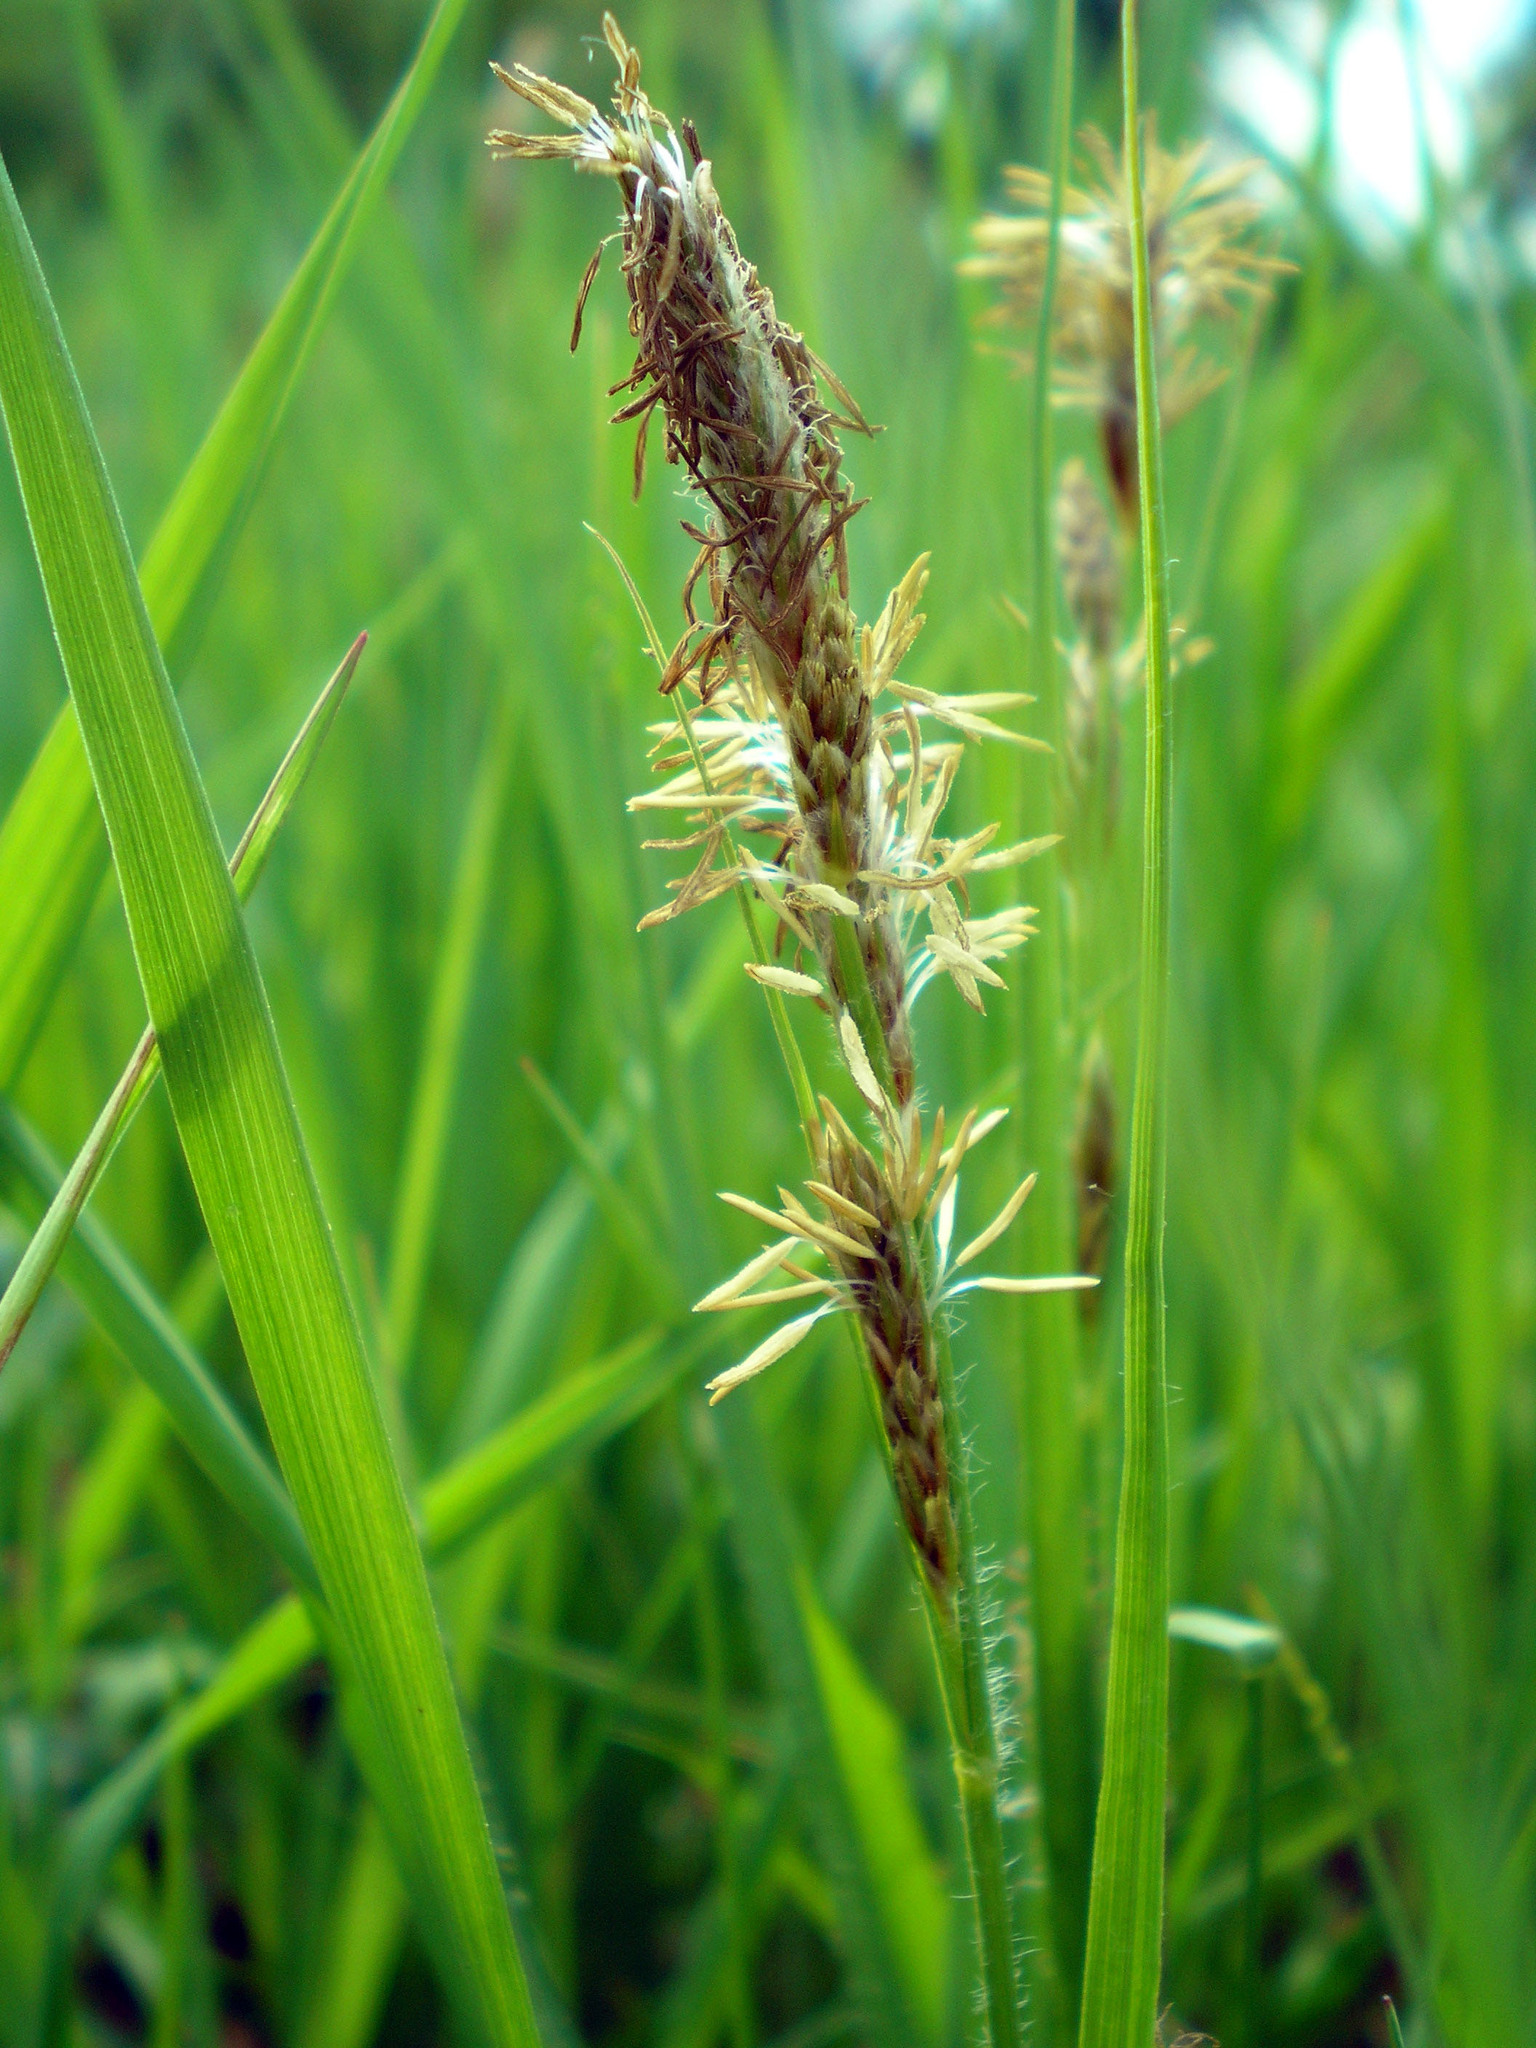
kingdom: Plantae
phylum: Tracheophyta
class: Liliopsida
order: Poales
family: Cyperaceae
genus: Carex
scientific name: Carex hirta
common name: Hairy sedge
